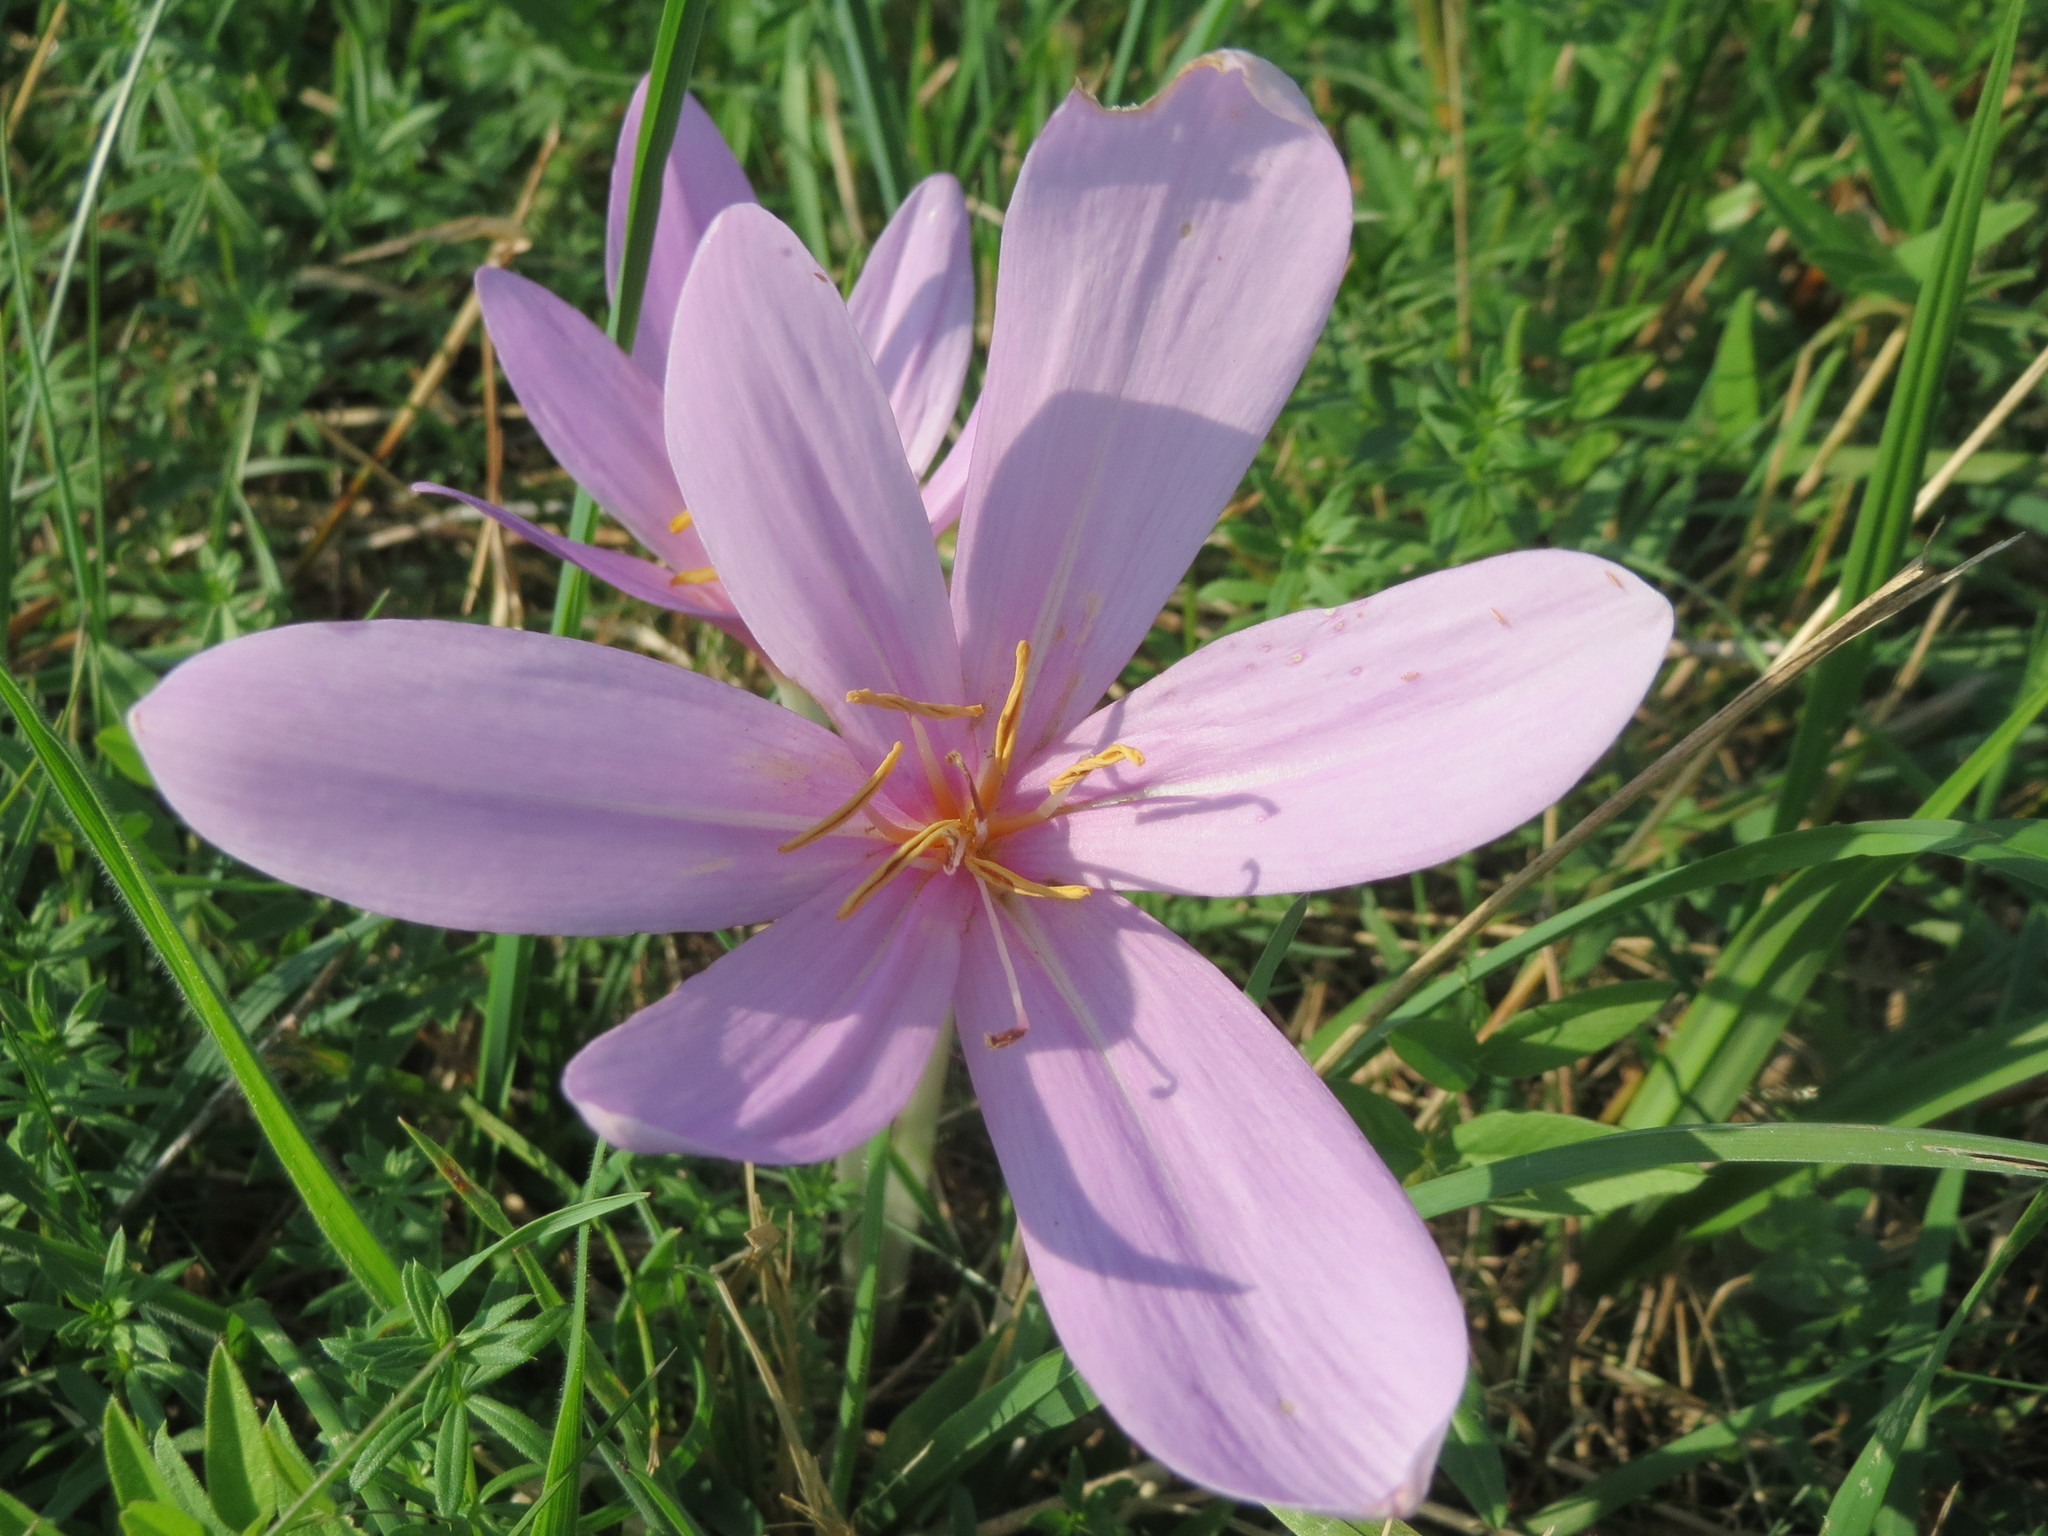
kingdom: Plantae
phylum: Tracheophyta
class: Liliopsida
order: Liliales
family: Colchicaceae
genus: Colchicum
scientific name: Colchicum autumnale
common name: Autumn crocus
